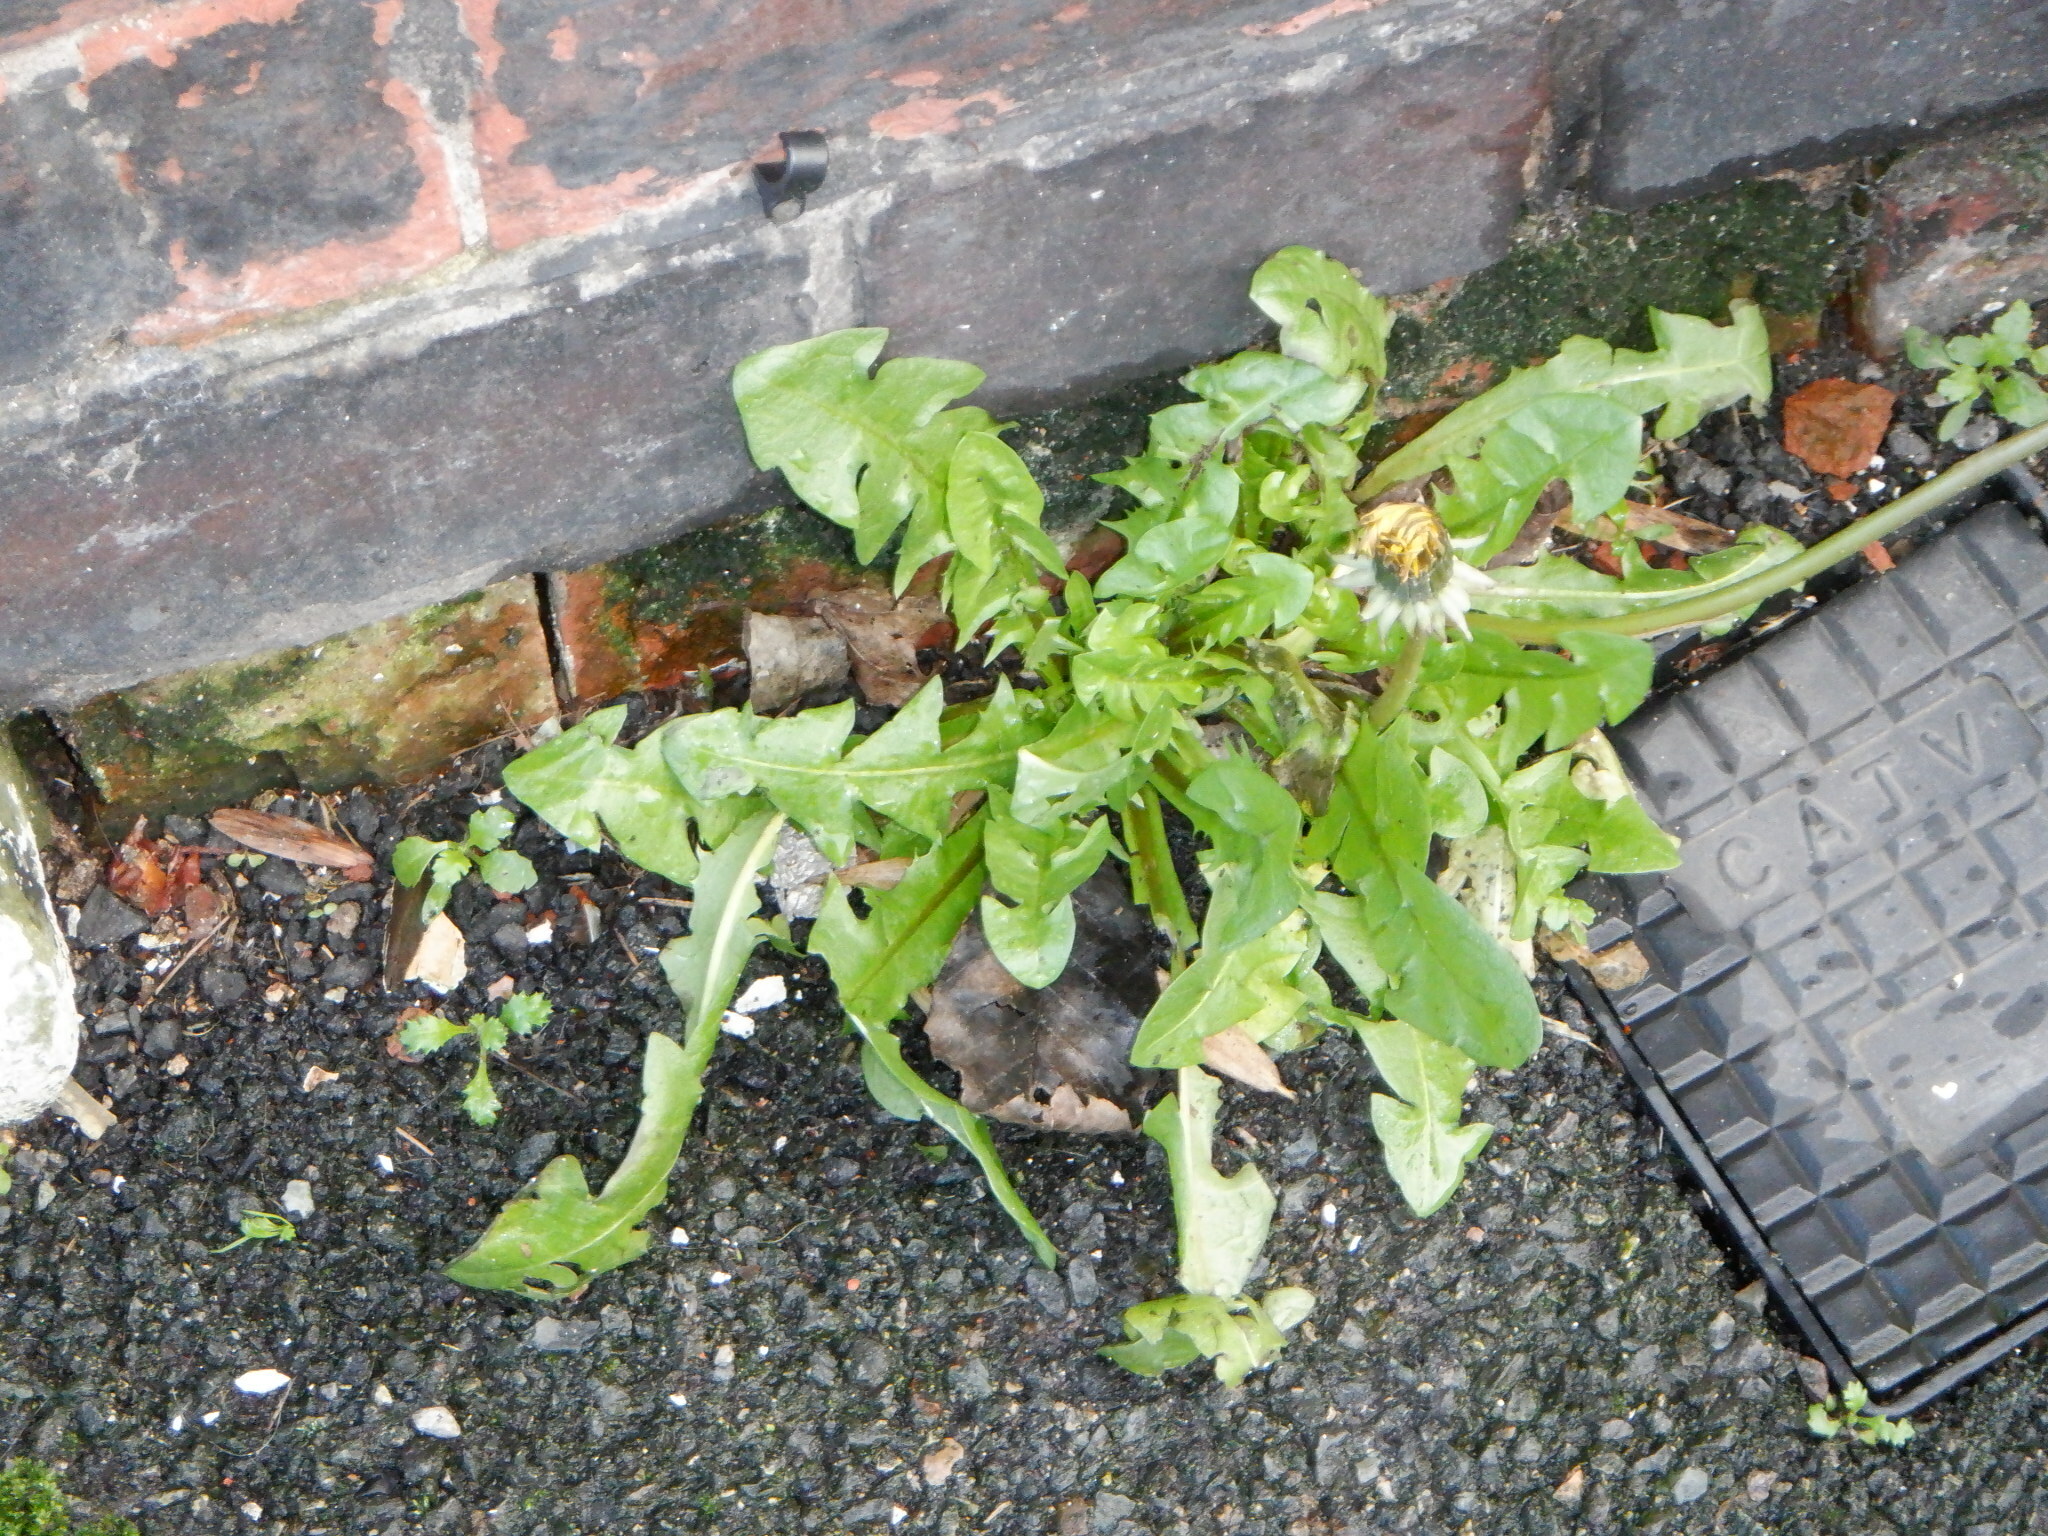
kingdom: Plantae
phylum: Tracheophyta
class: Magnoliopsida
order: Asterales
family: Asteraceae
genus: Taraxacum
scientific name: Taraxacum officinale
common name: Common dandelion
